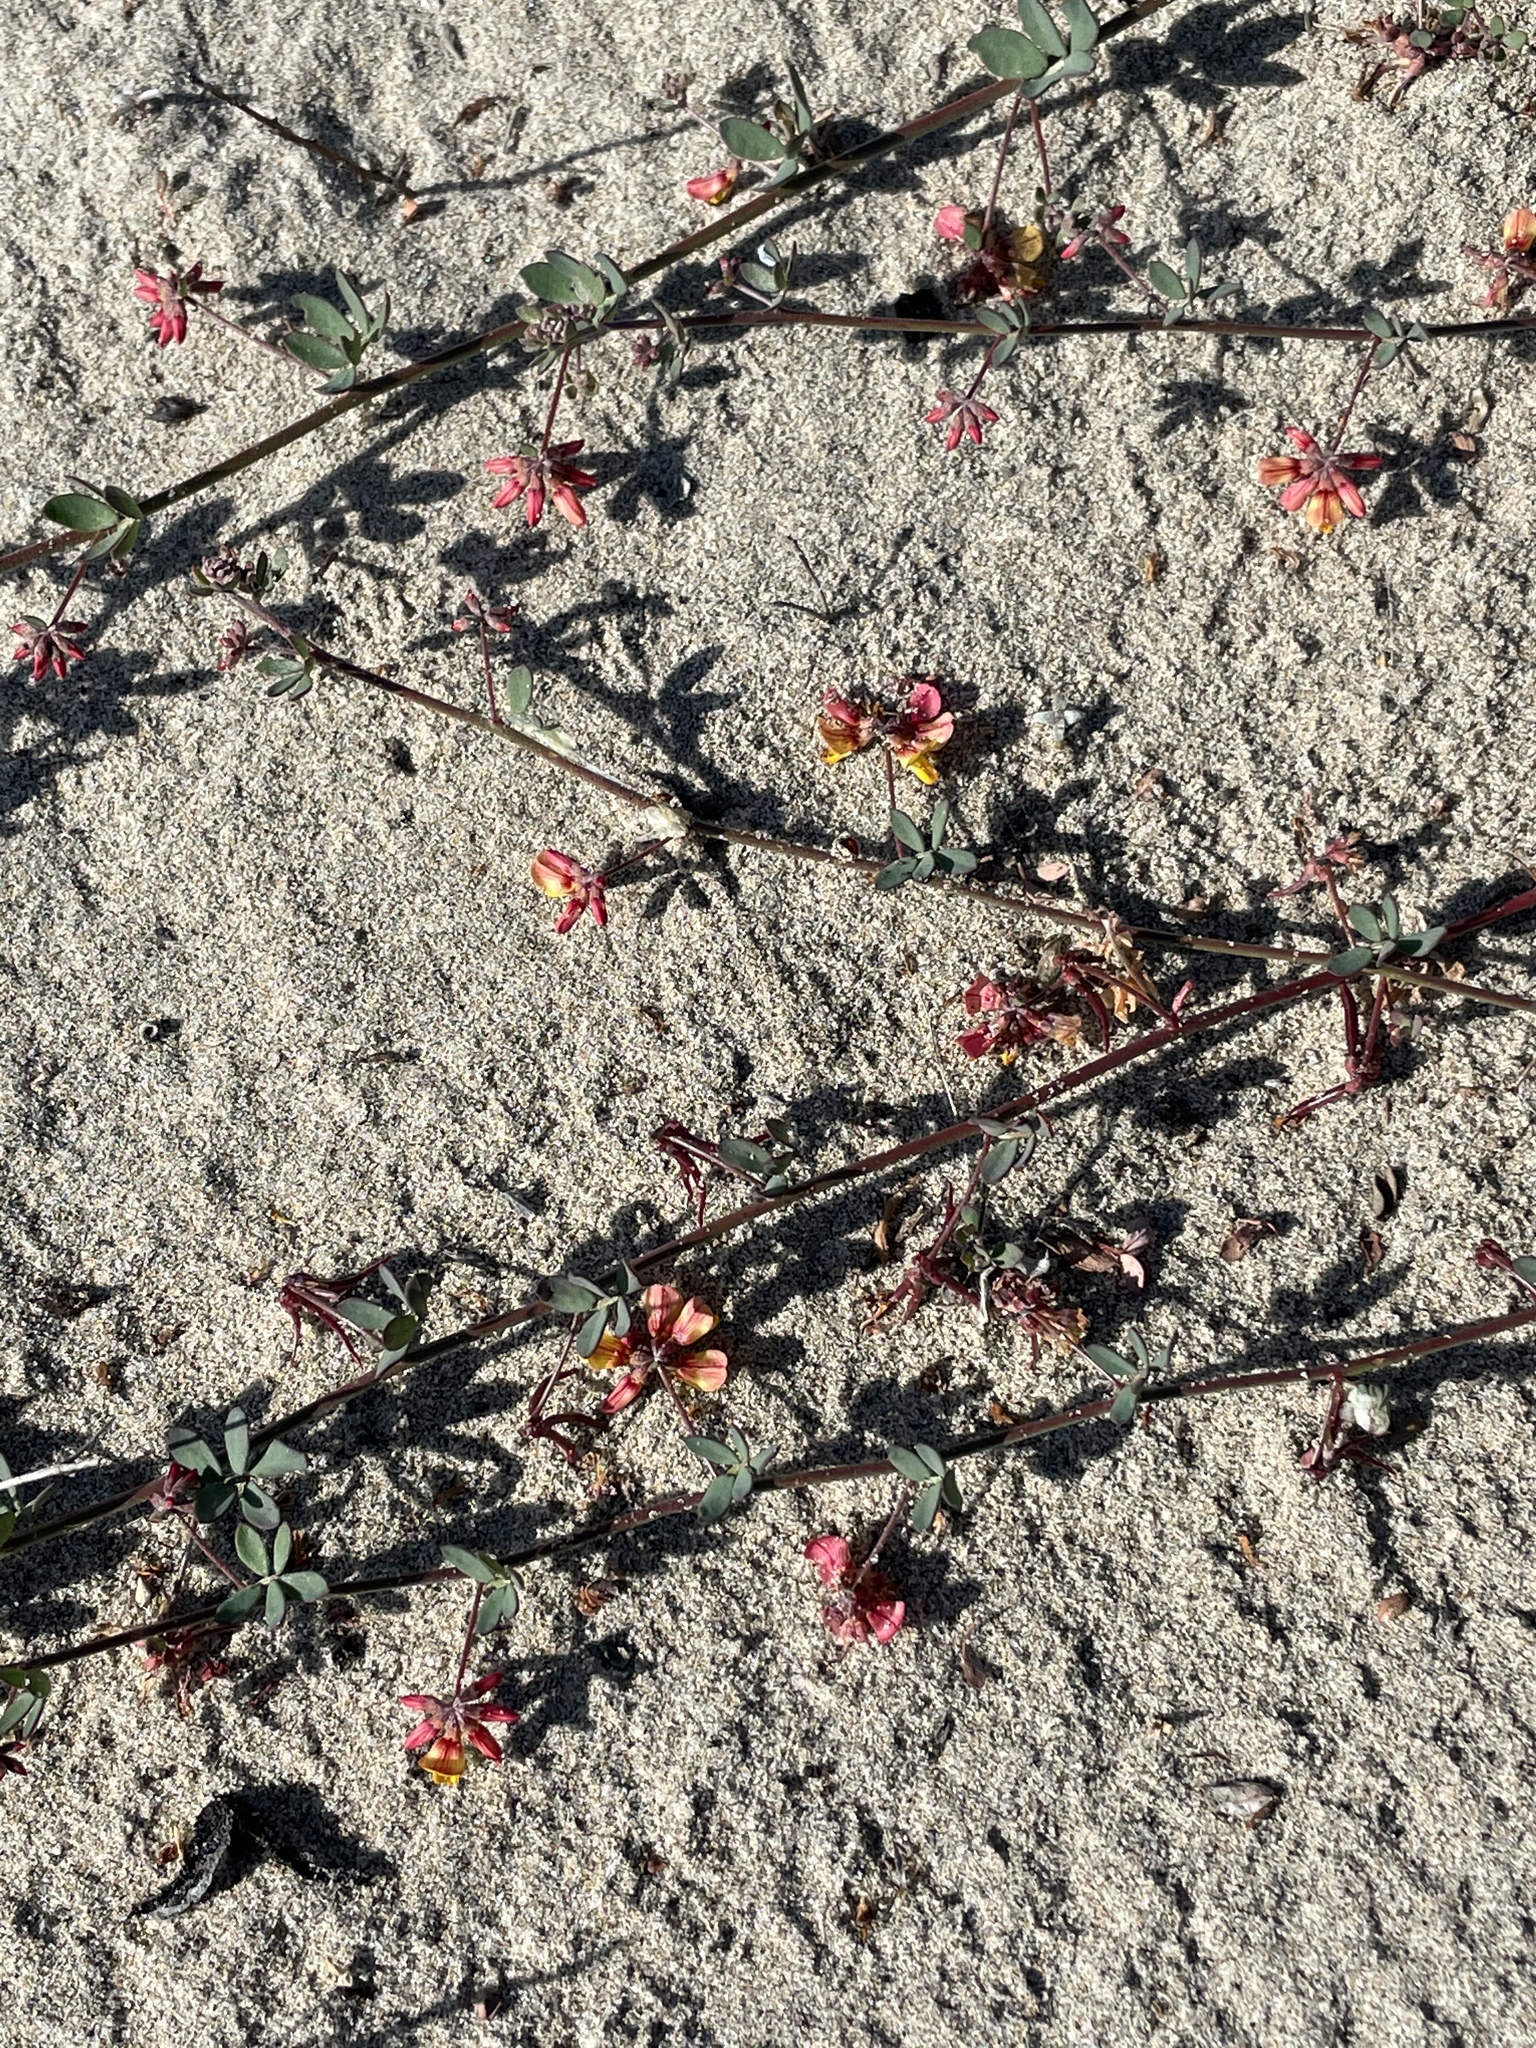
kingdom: Plantae
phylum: Tracheophyta
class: Magnoliopsida
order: Fabales
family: Fabaceae
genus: Acmispon
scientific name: Acmispon prostratus
